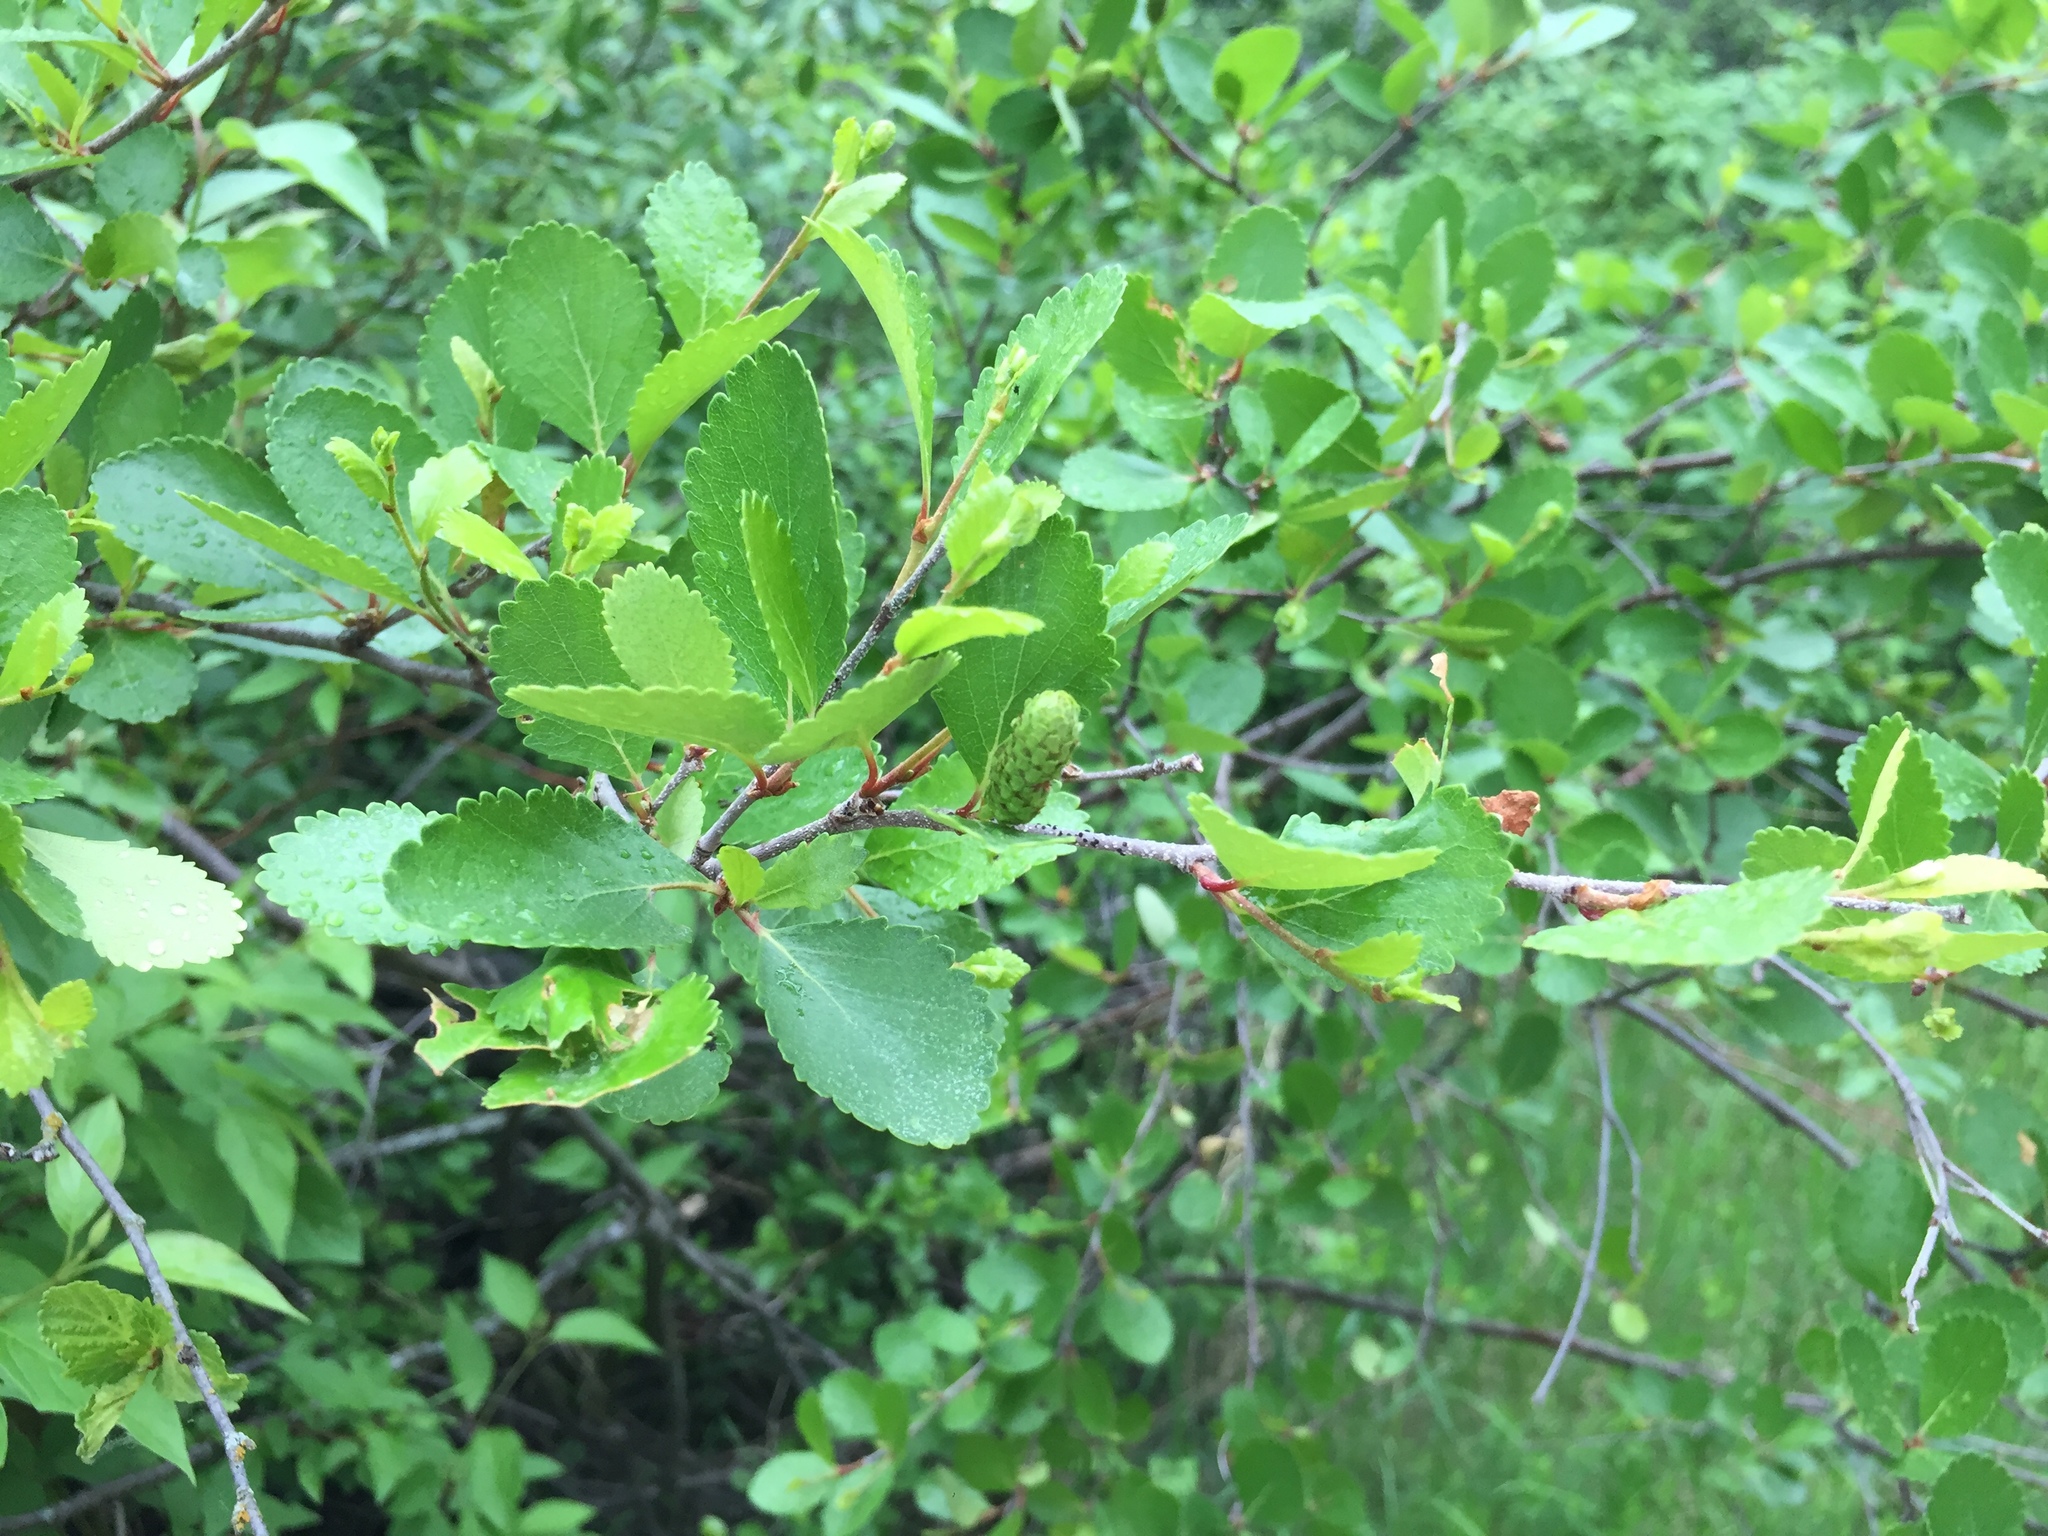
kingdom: Plantae
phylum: Tracheophyta
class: Magnoliopsida
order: Fagales
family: Betulaceae
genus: Betula
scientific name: Betula pumila
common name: Bog birch
